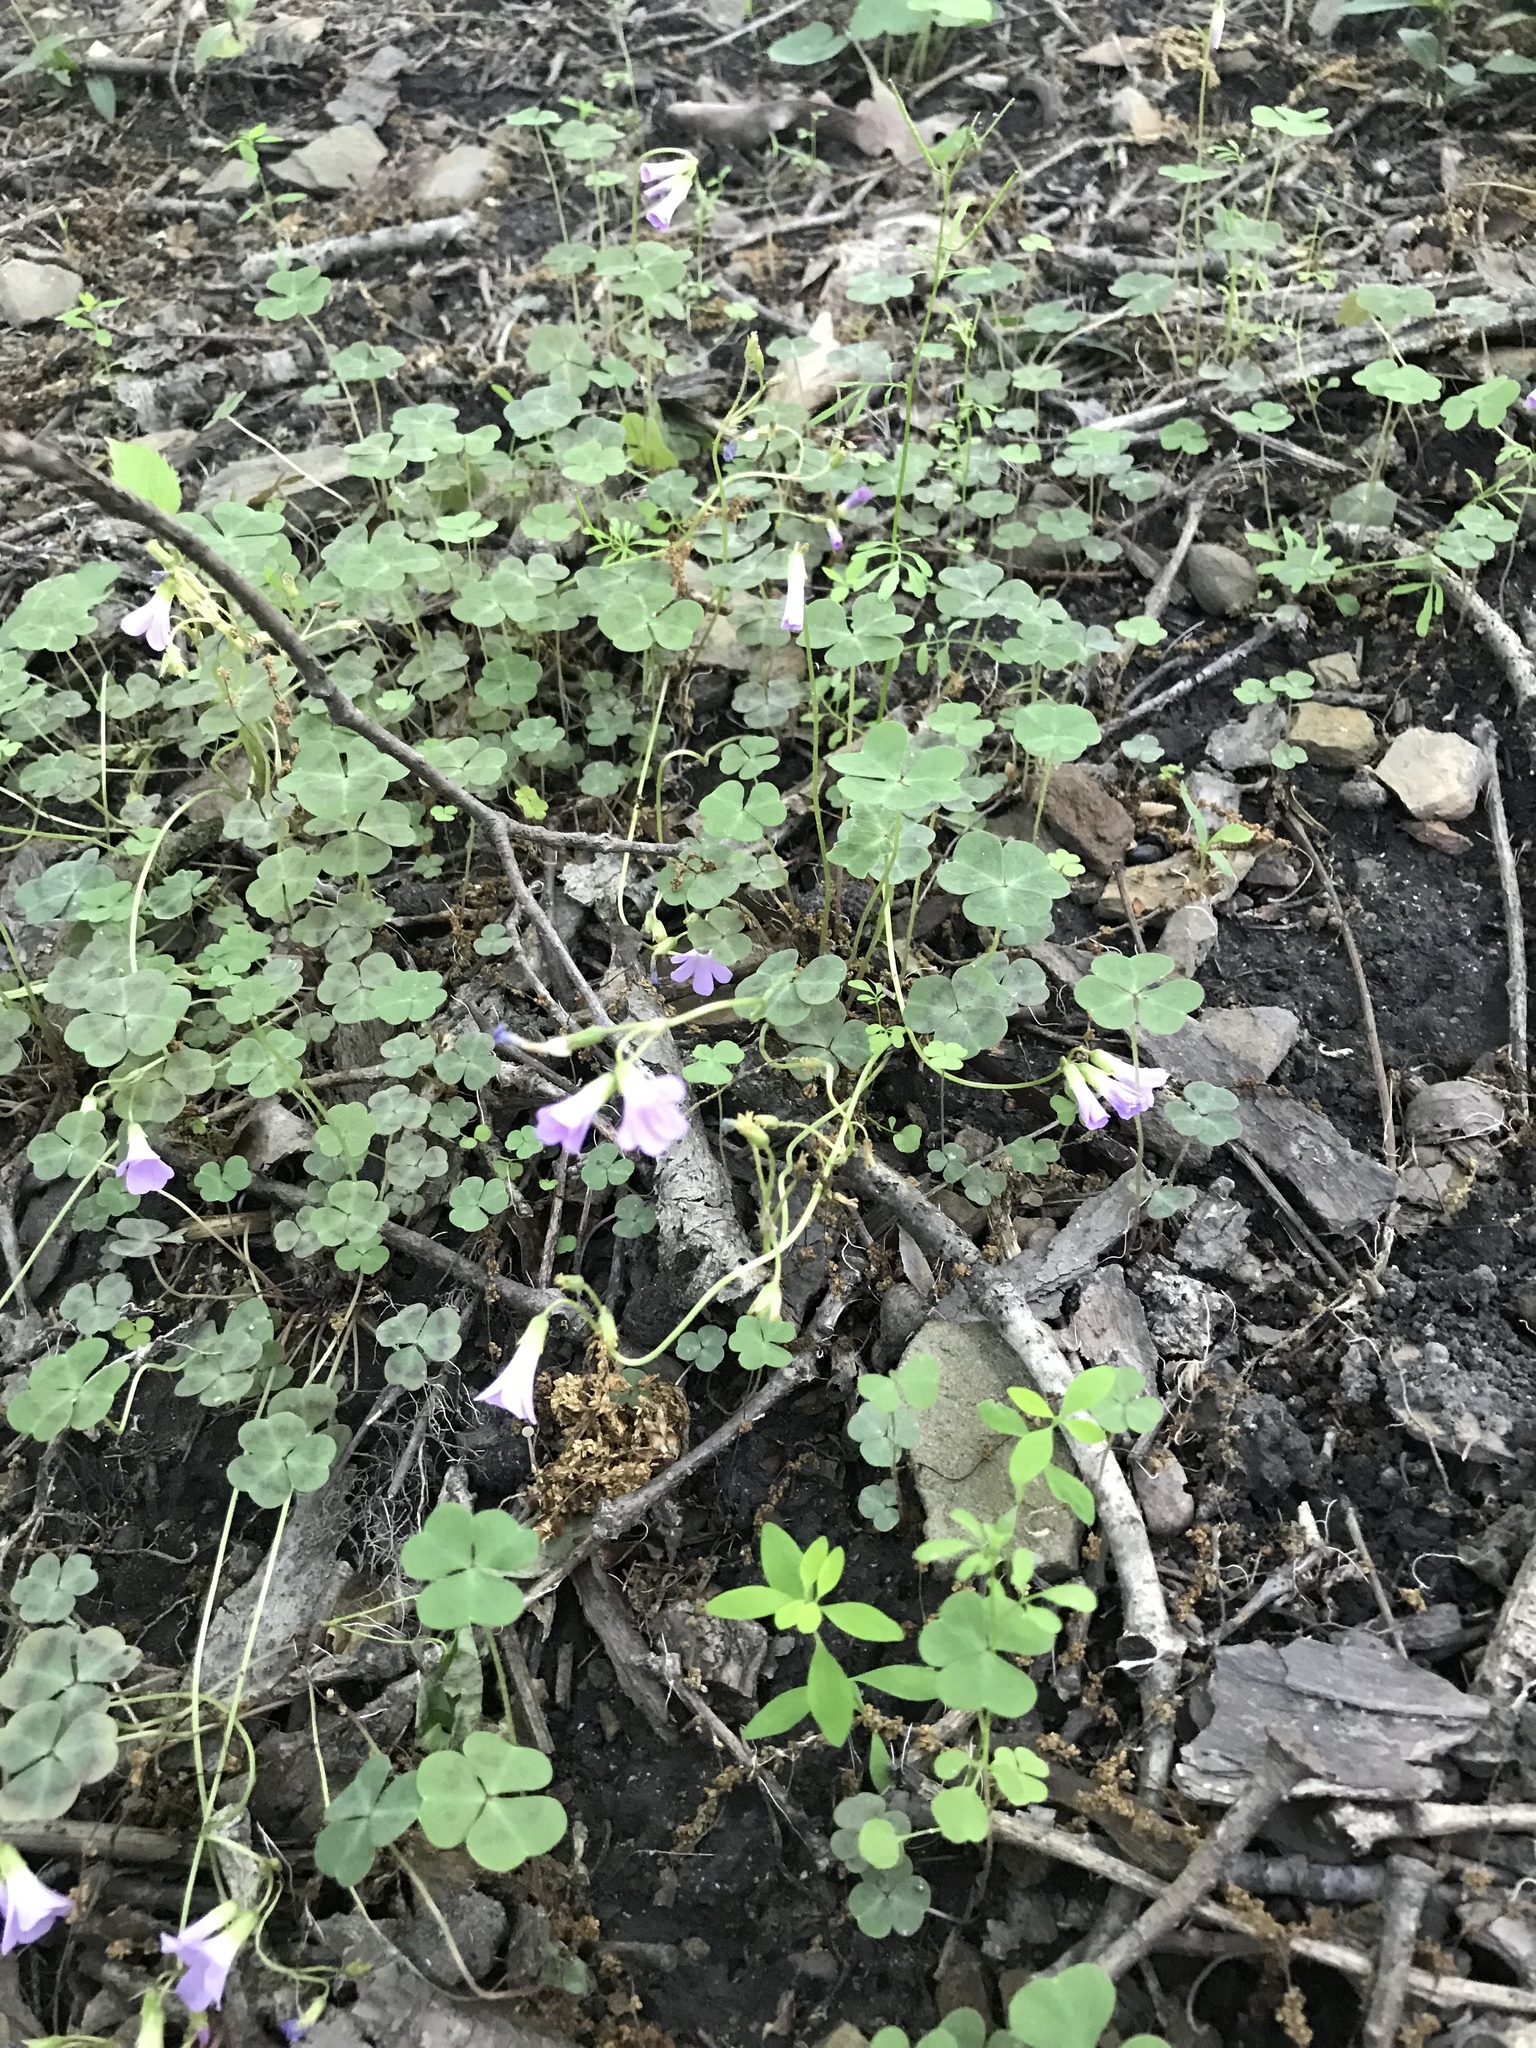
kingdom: Plantae
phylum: Tracheophyta
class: Magnoliopsida
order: Oxalidales
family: Oxalidaceae
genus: Oxalis
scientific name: Oxalis violacea
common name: Violet wood-sorrel
